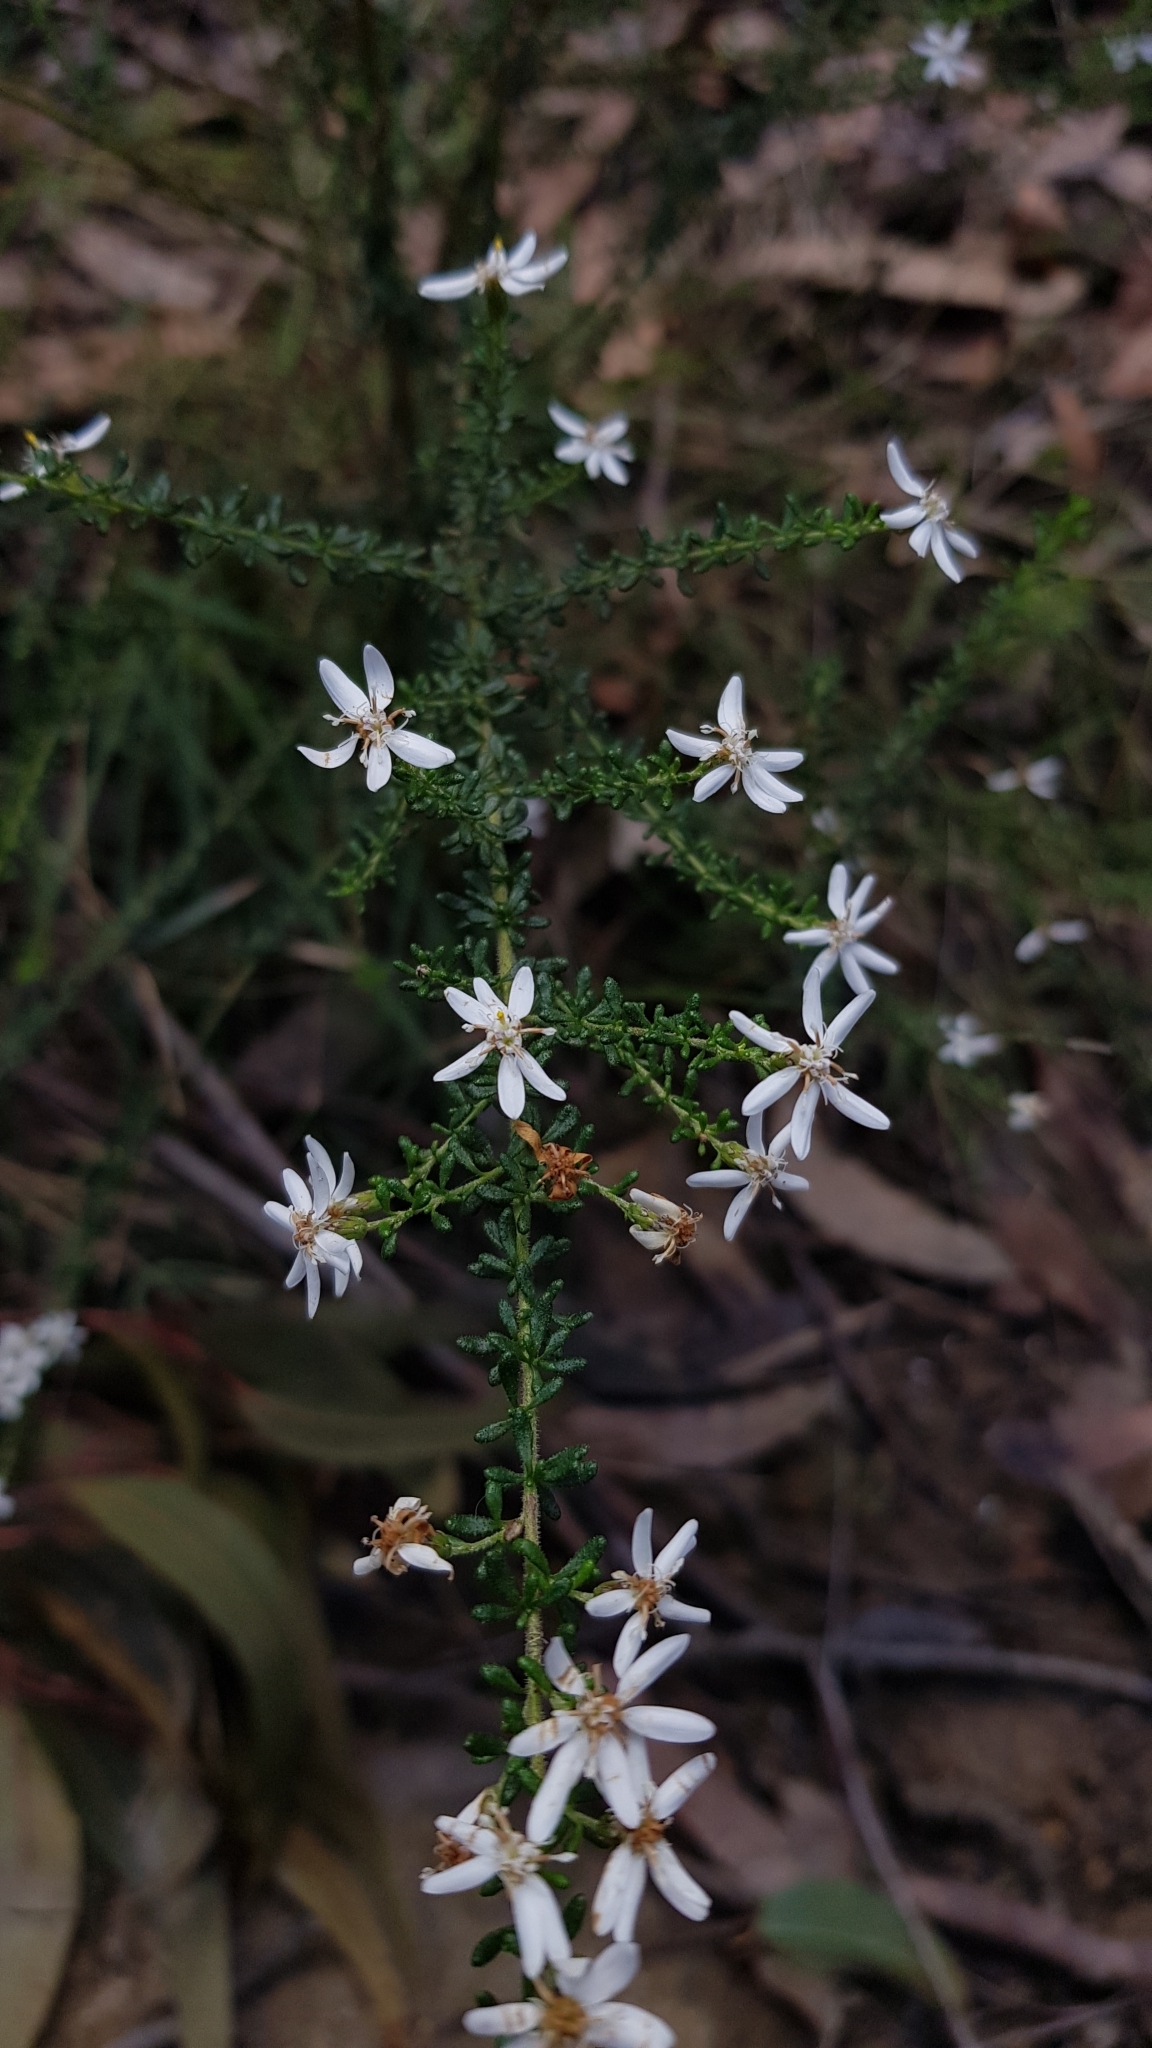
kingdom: Plantae
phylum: Tracheophyta
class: Magnoliopsida
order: Asterales
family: Asteraceae
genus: Olearia
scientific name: Olearia microphylla
